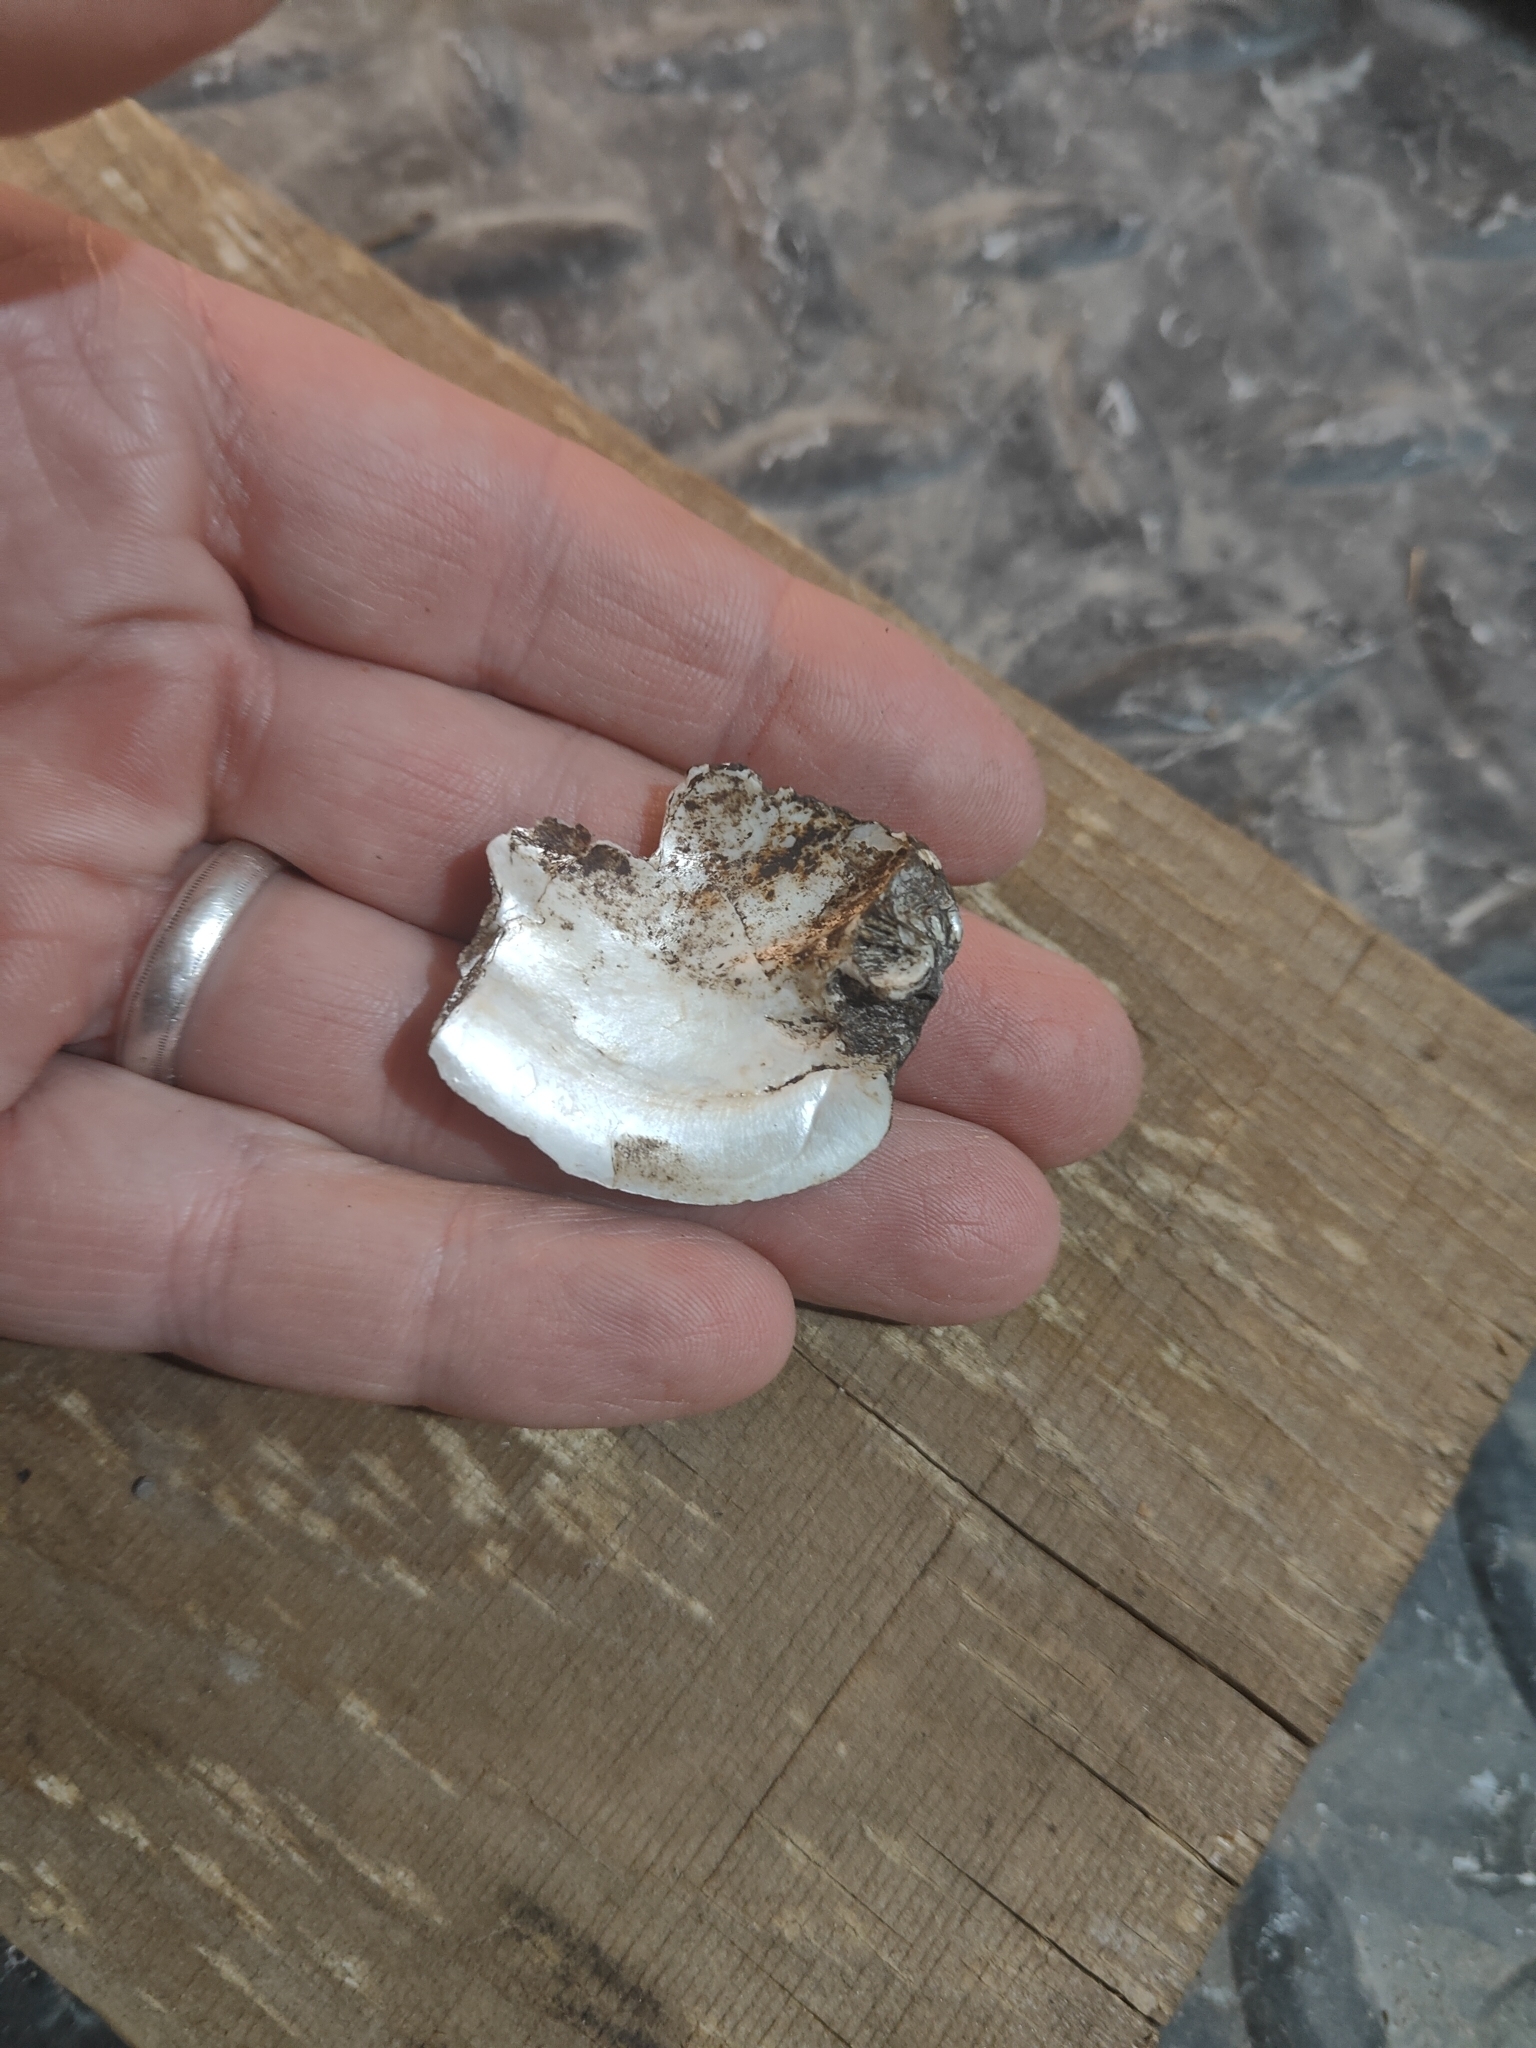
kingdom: Animalia
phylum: Mollusca
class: Bivalvia
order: Unionida
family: Unionidae
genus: Amblema
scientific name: Amblema plicata
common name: Threeridge
